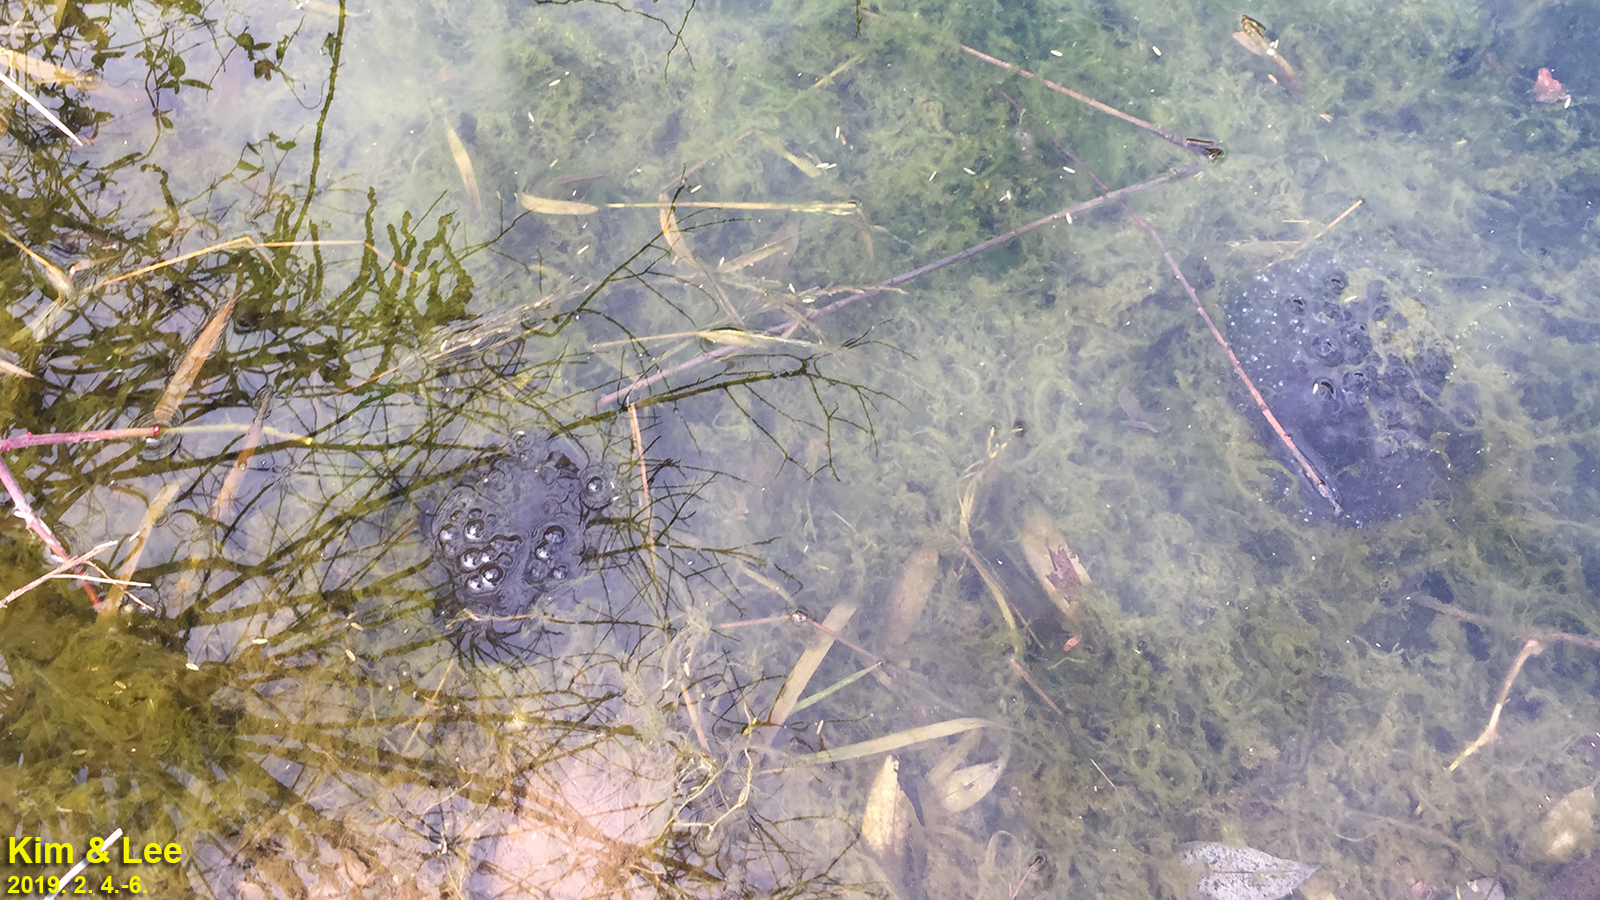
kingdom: Animalia
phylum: Chordata
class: Amphibia
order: Anura
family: Ranidae
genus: Rana
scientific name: Rana uenoi
